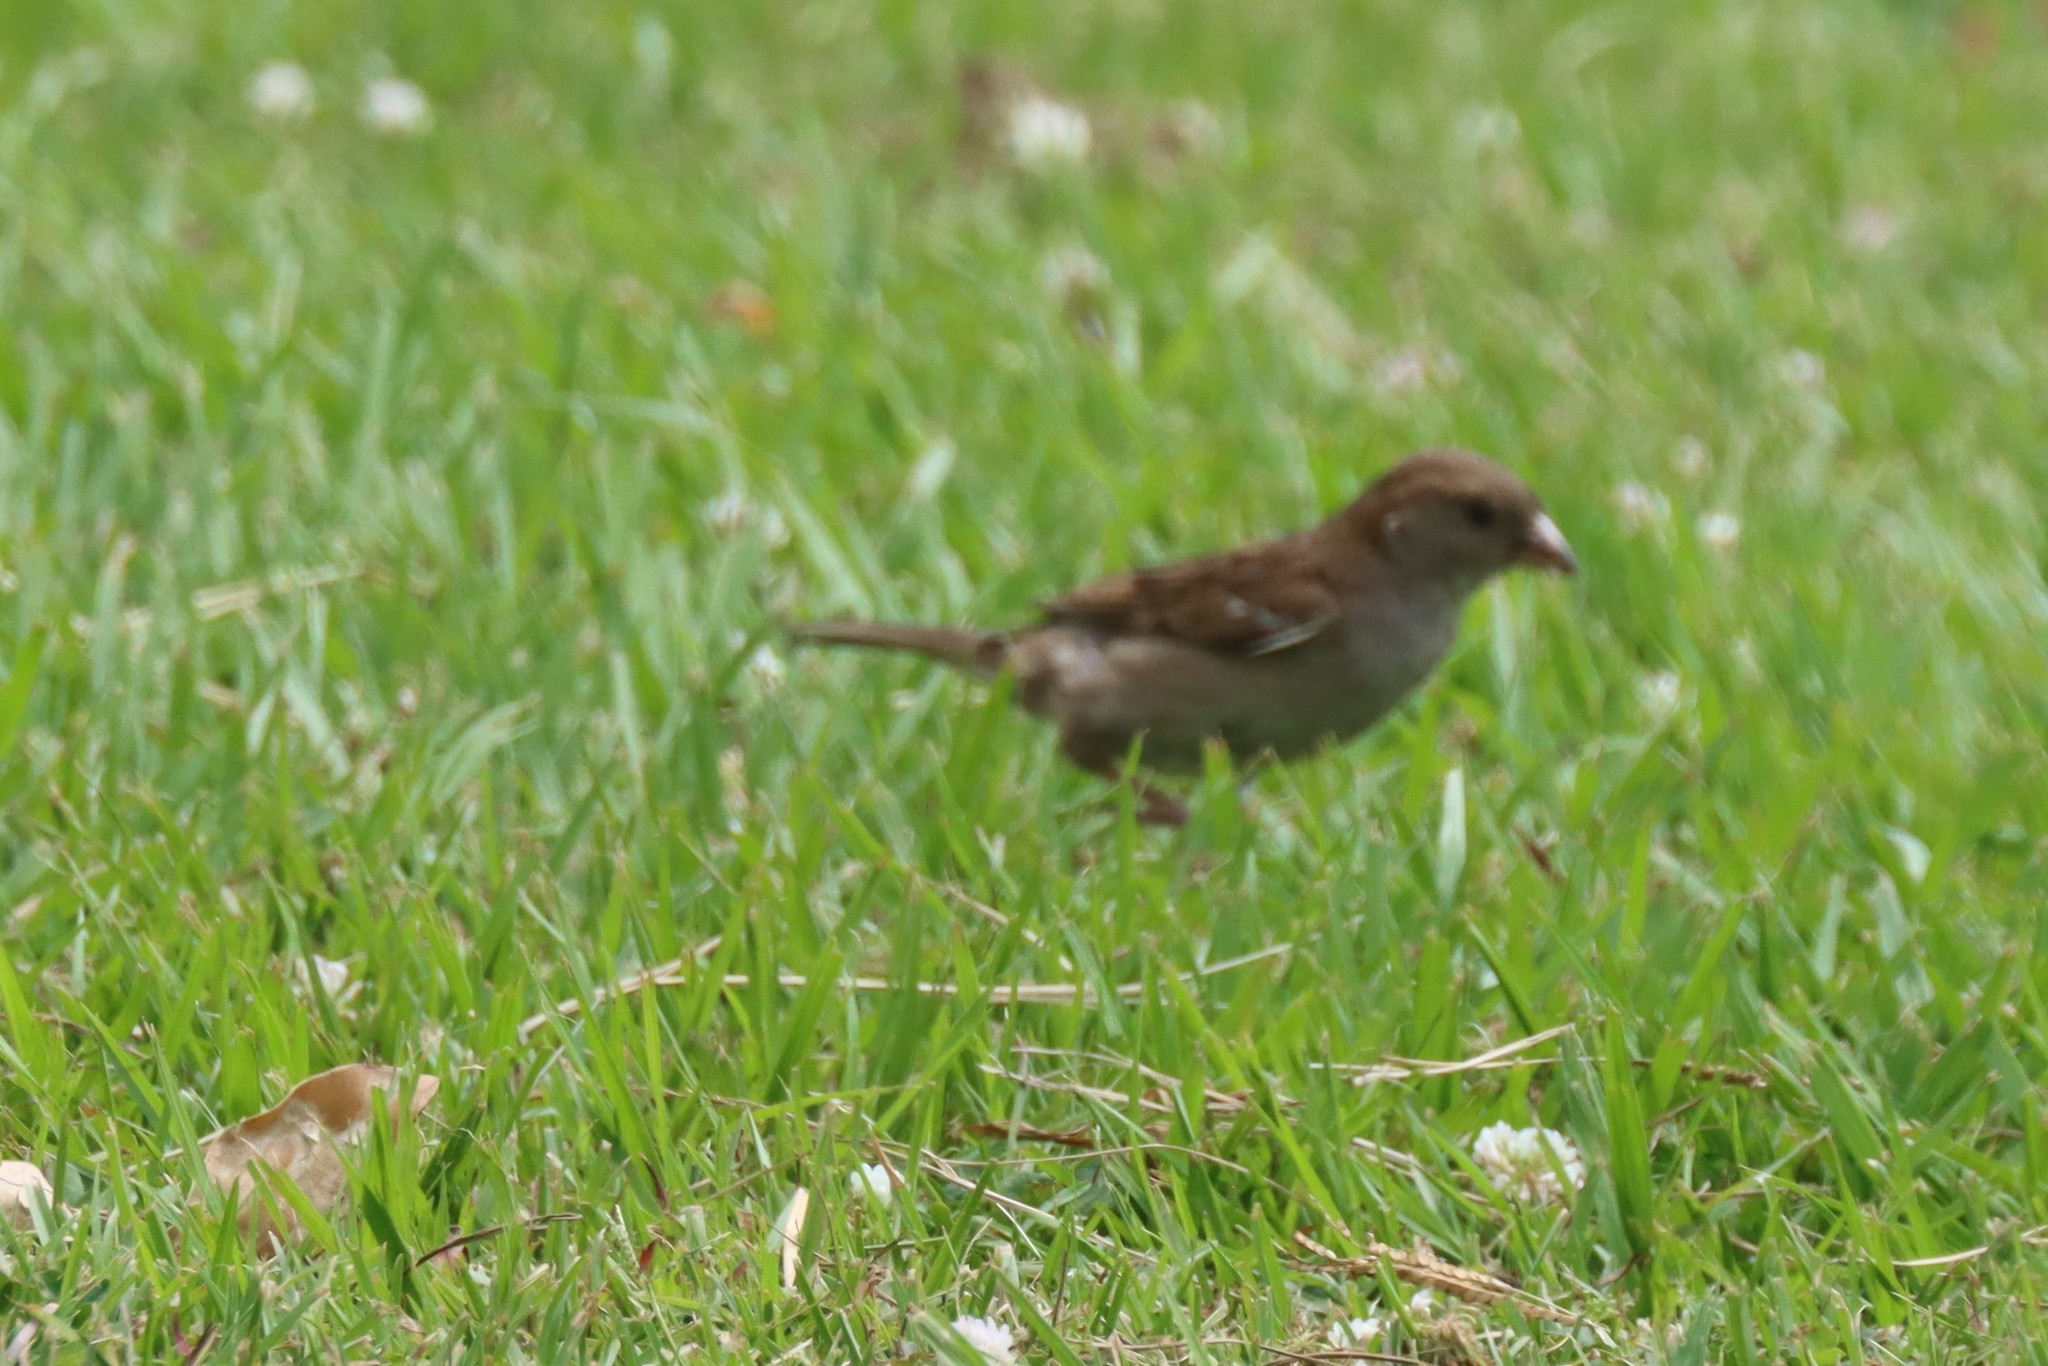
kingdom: Animalia
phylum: Chordata
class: Aves
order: Passeriformes
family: Passeridae
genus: Passer
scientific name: Passer domesticus
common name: House sparrow
